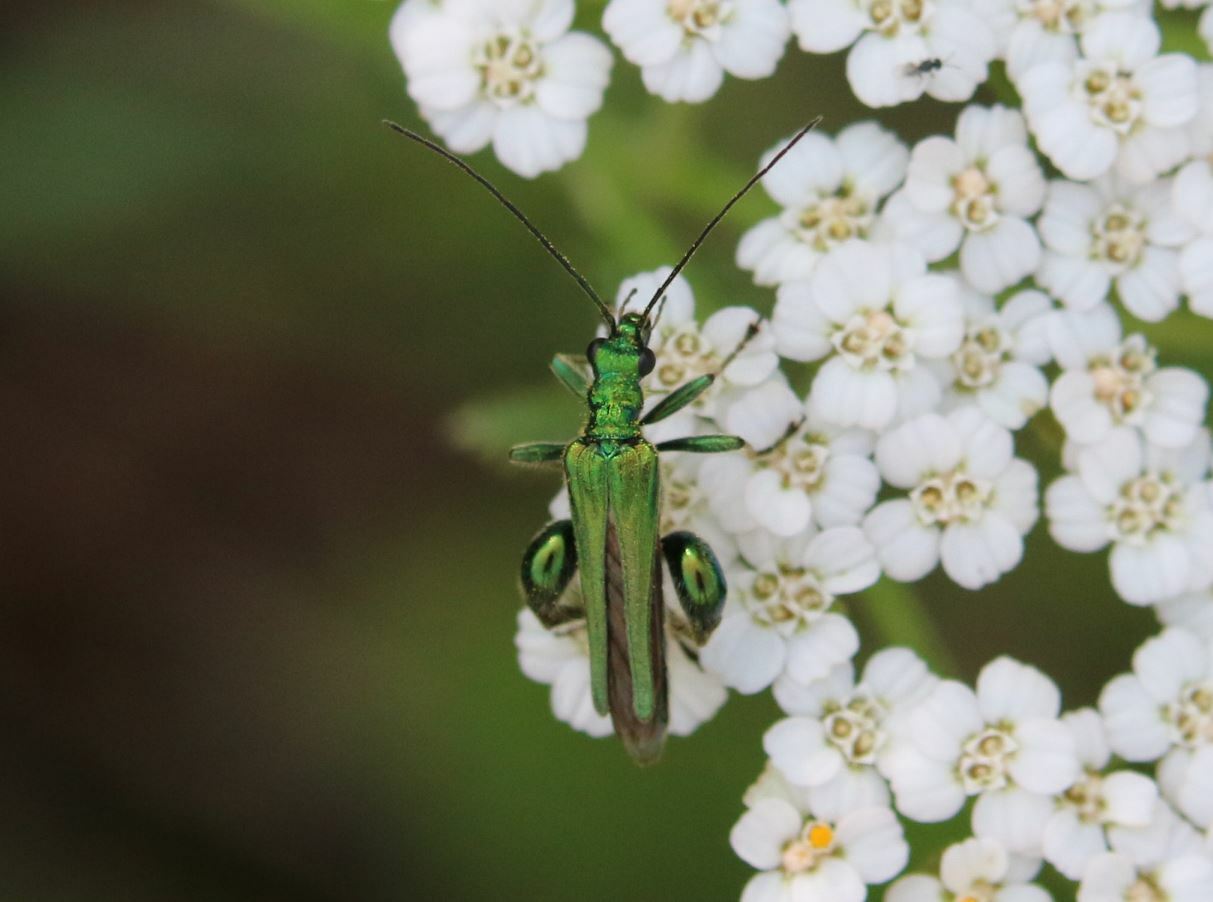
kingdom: Animalia
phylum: Arthropoda
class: Insecta
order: Coleoptera
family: Oedemeridae
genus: Oedemera
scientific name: Oedemera nobilis
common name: Swollen-thighed beetle
